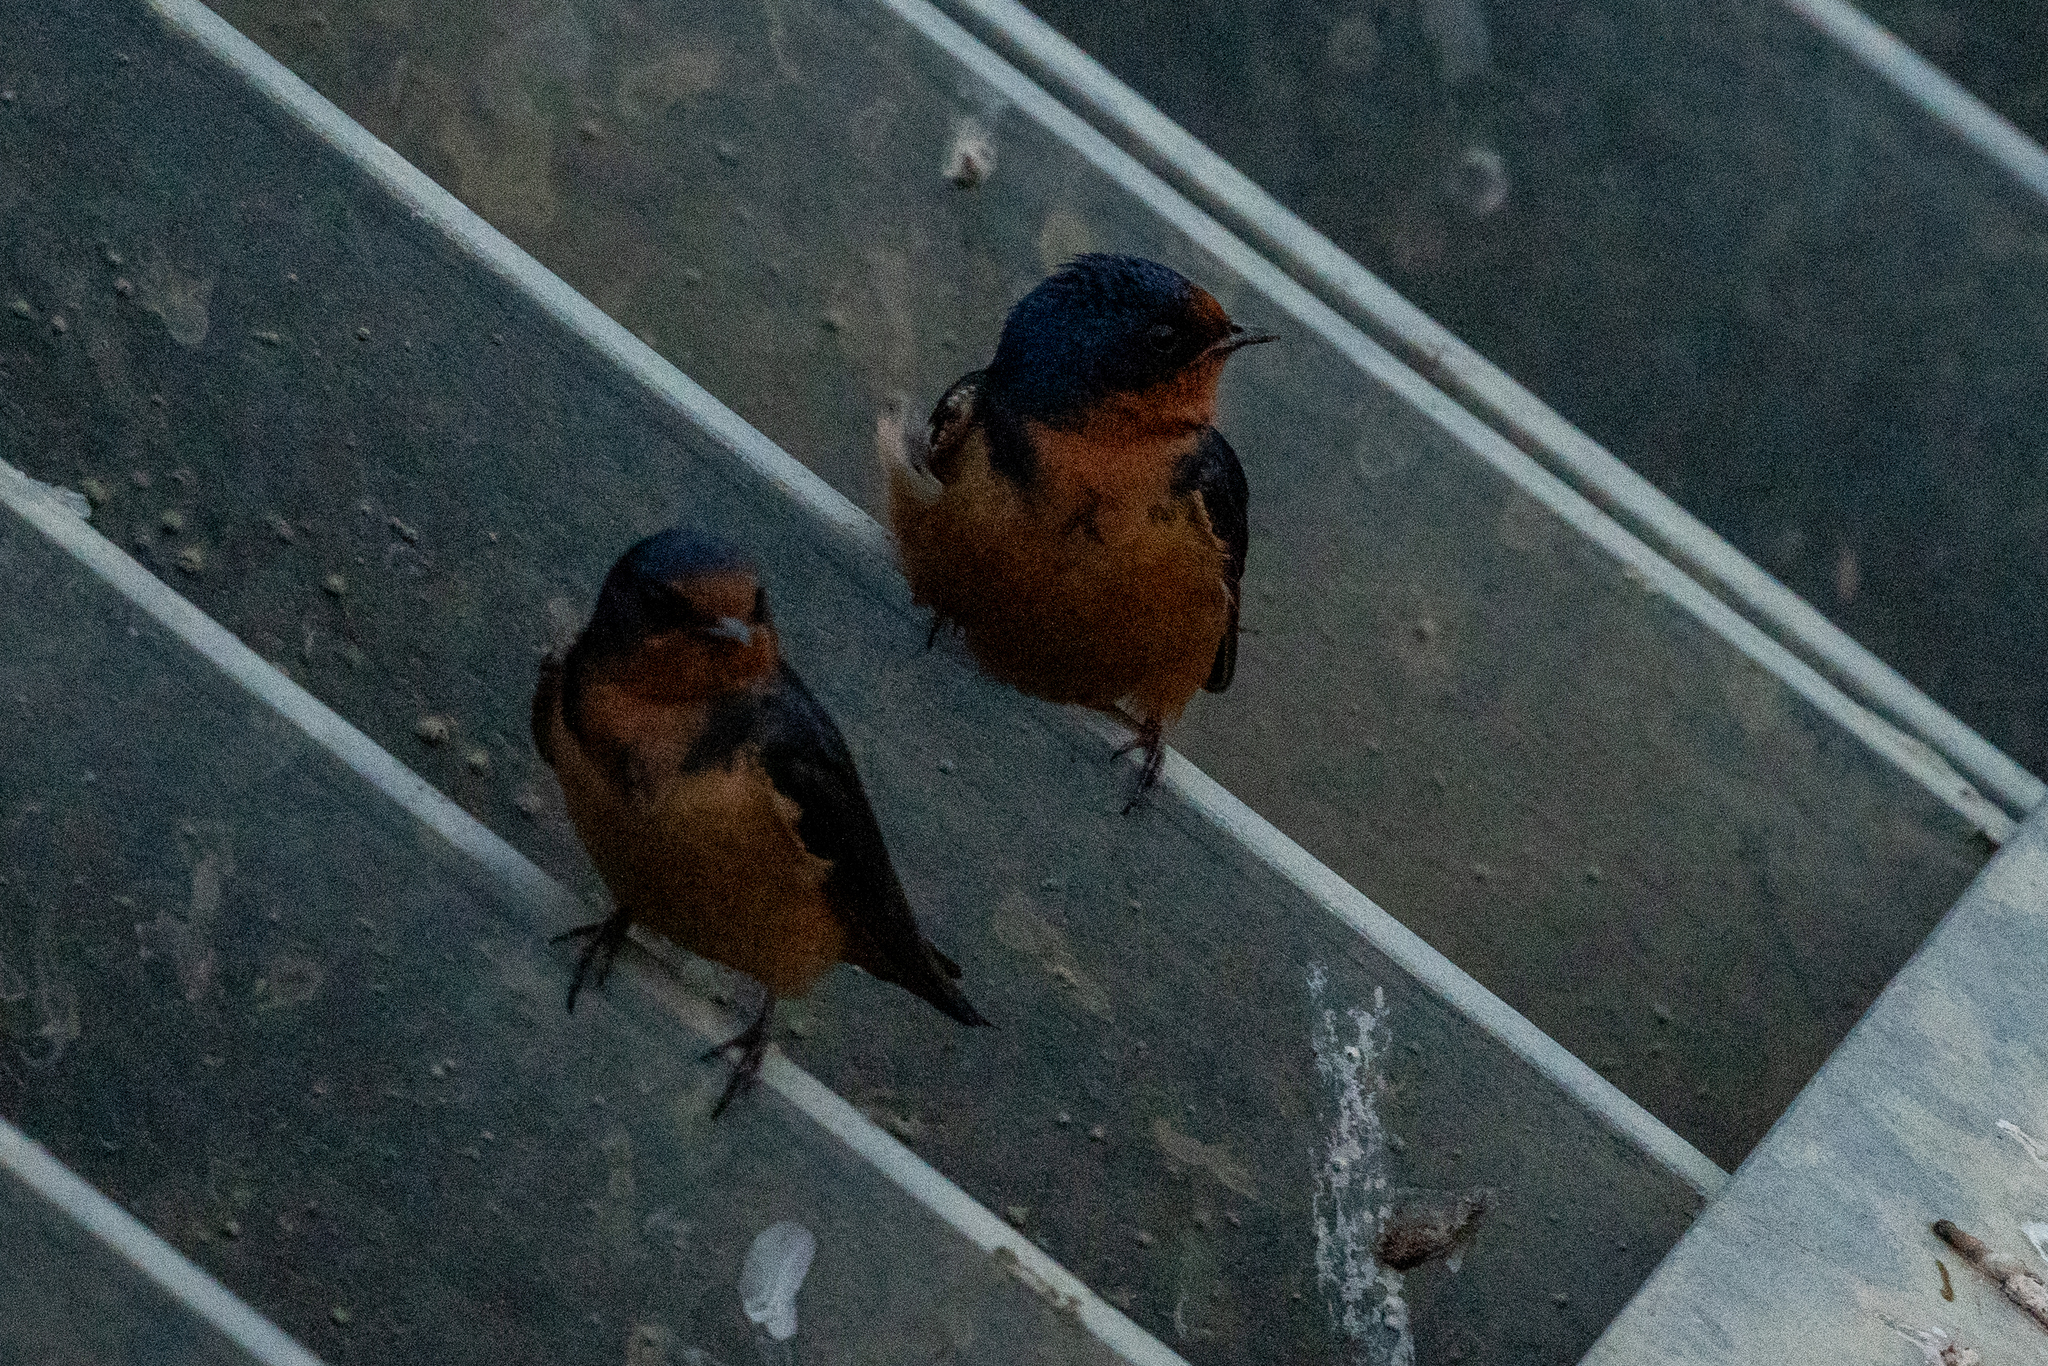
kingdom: Animalia
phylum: Chordata
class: Aves
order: Passeriformes
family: Hirundinidae
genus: Hirundo
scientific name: Hirundo rustica
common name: Barn swallow
